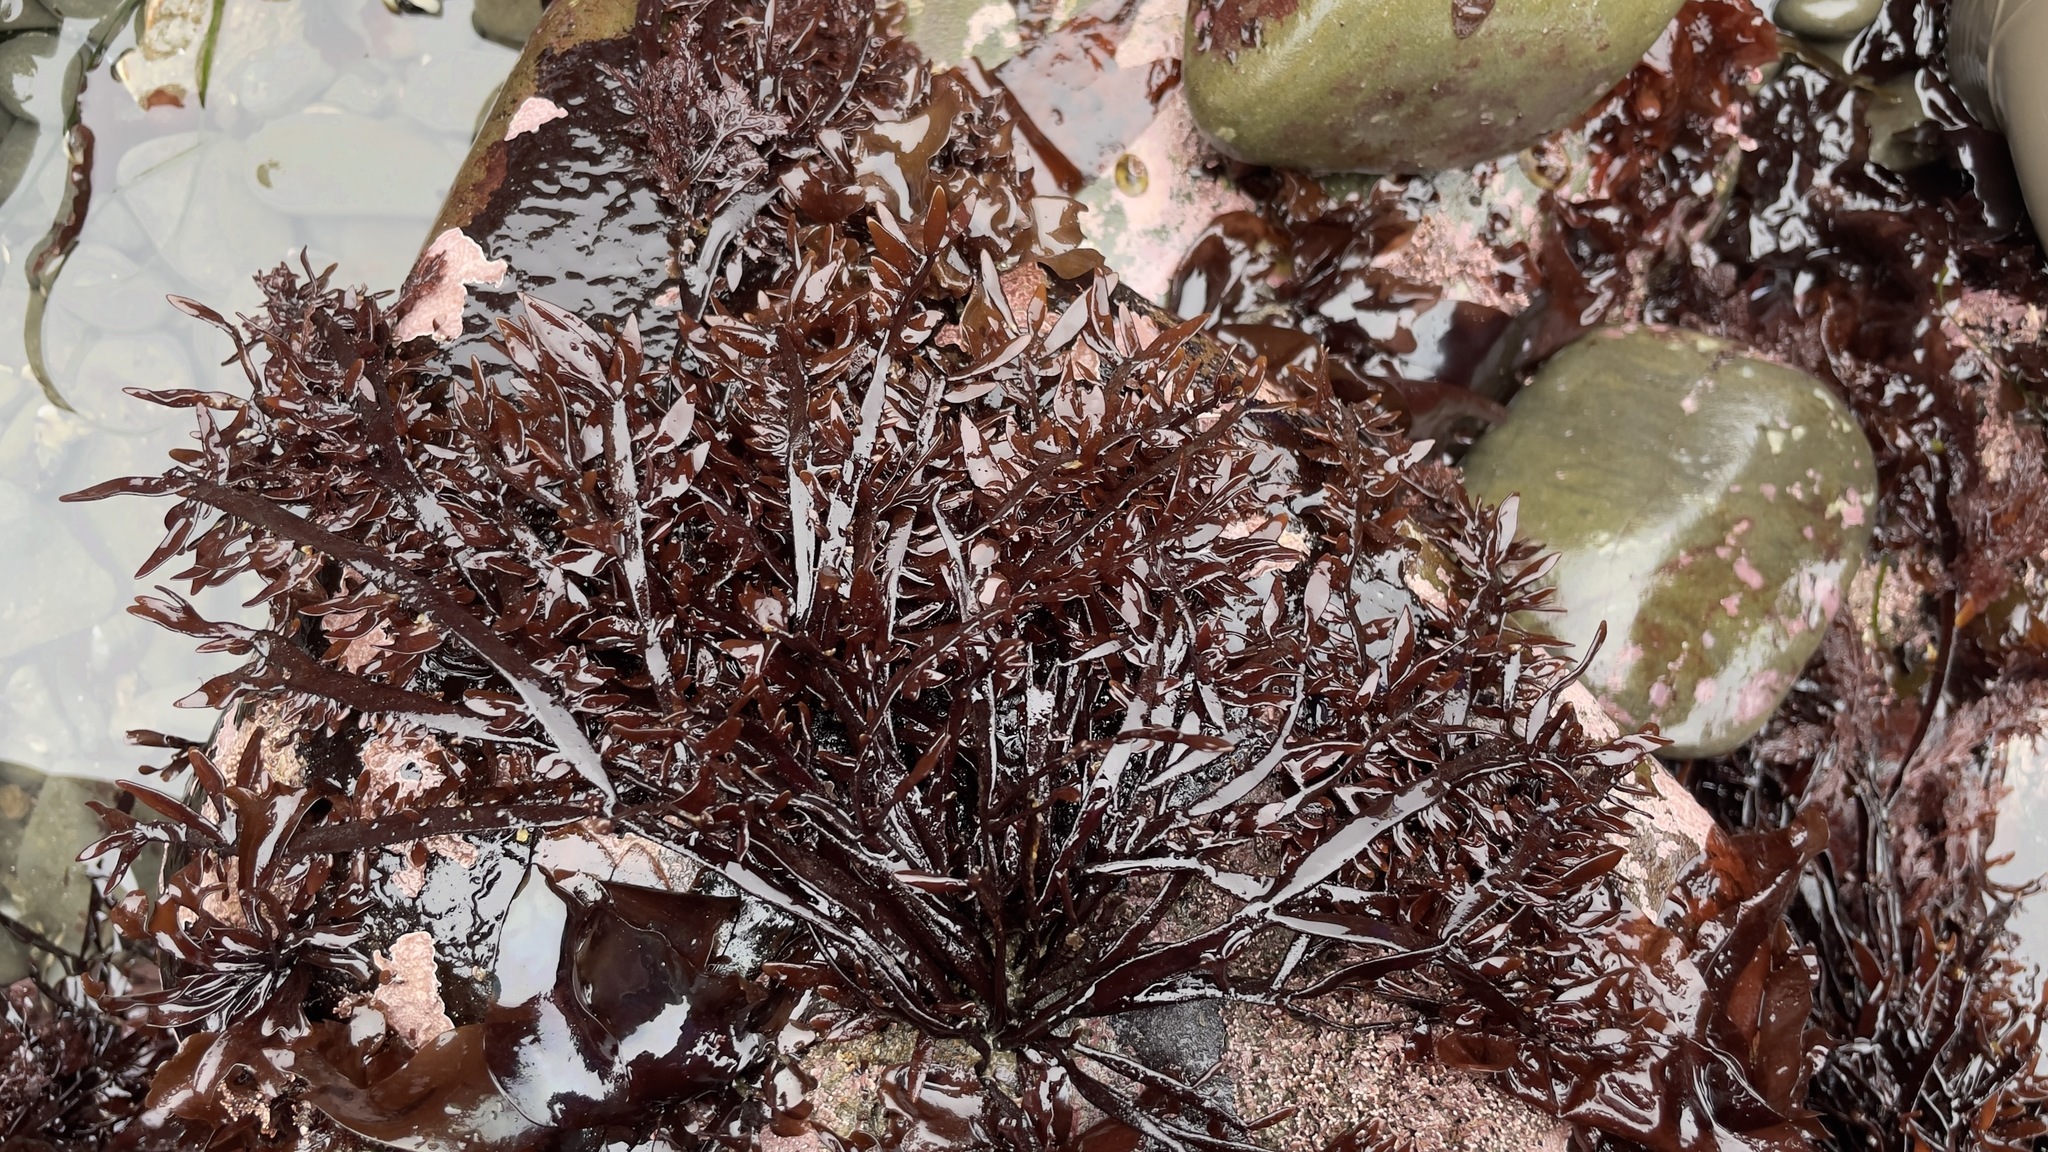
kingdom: Plantae
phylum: Rhodophyta
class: Florideophyceae
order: Halymeniales
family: Halymeniaceae
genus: Grateloupia
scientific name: Grateloupia Prionitis lanceolata
